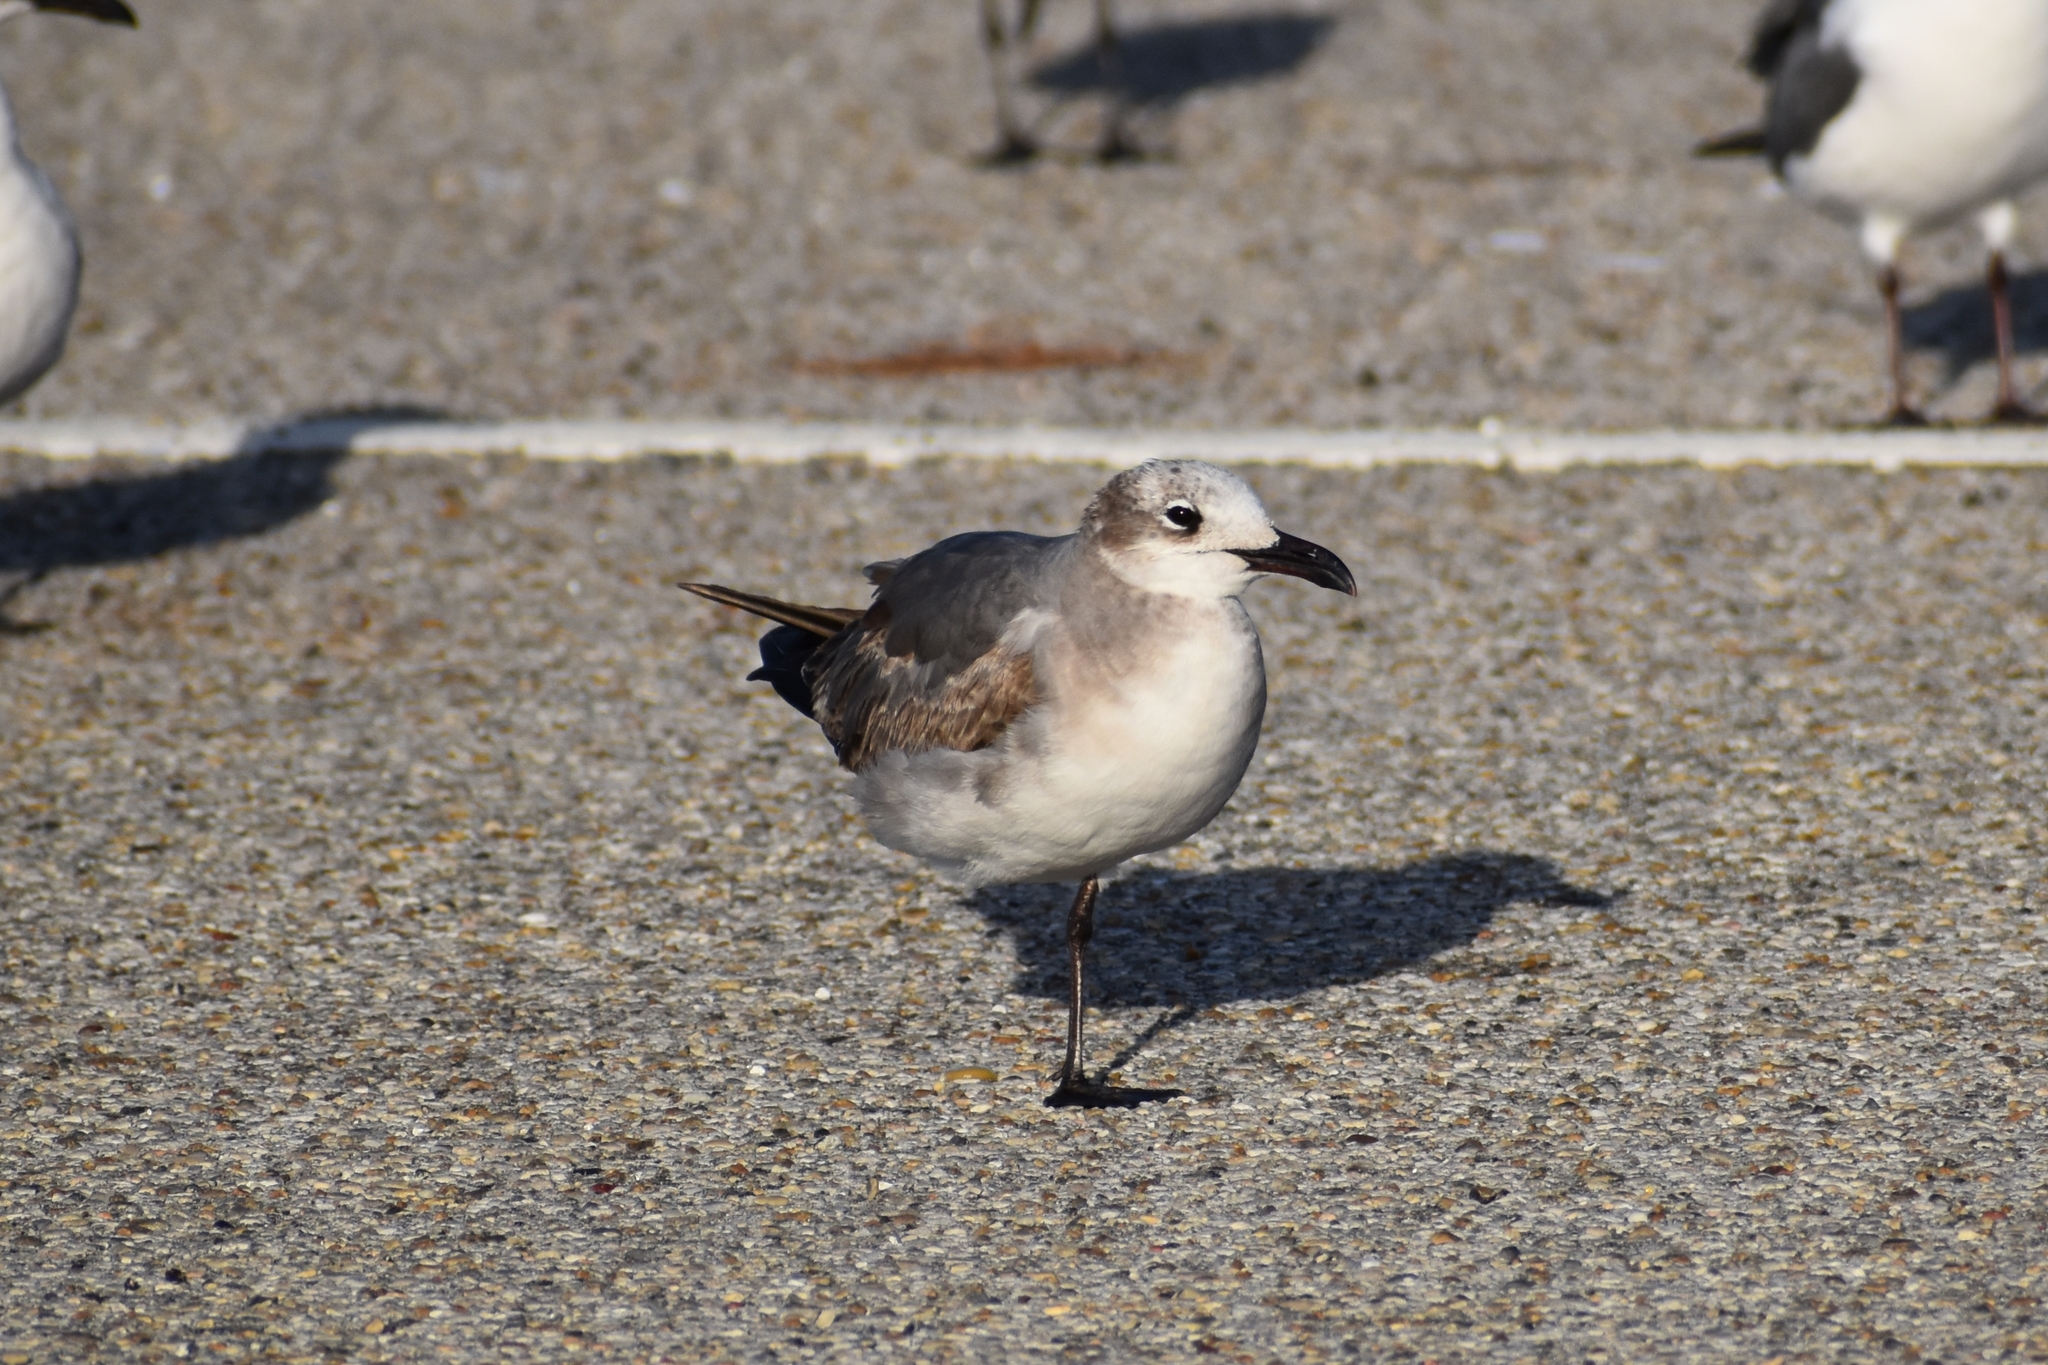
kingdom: Animalia
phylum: Chordata
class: Aves
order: Charadriiformes
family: Laridae
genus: Leucophaeus
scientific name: Leucophaeus atricilla
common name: Laughing gull
